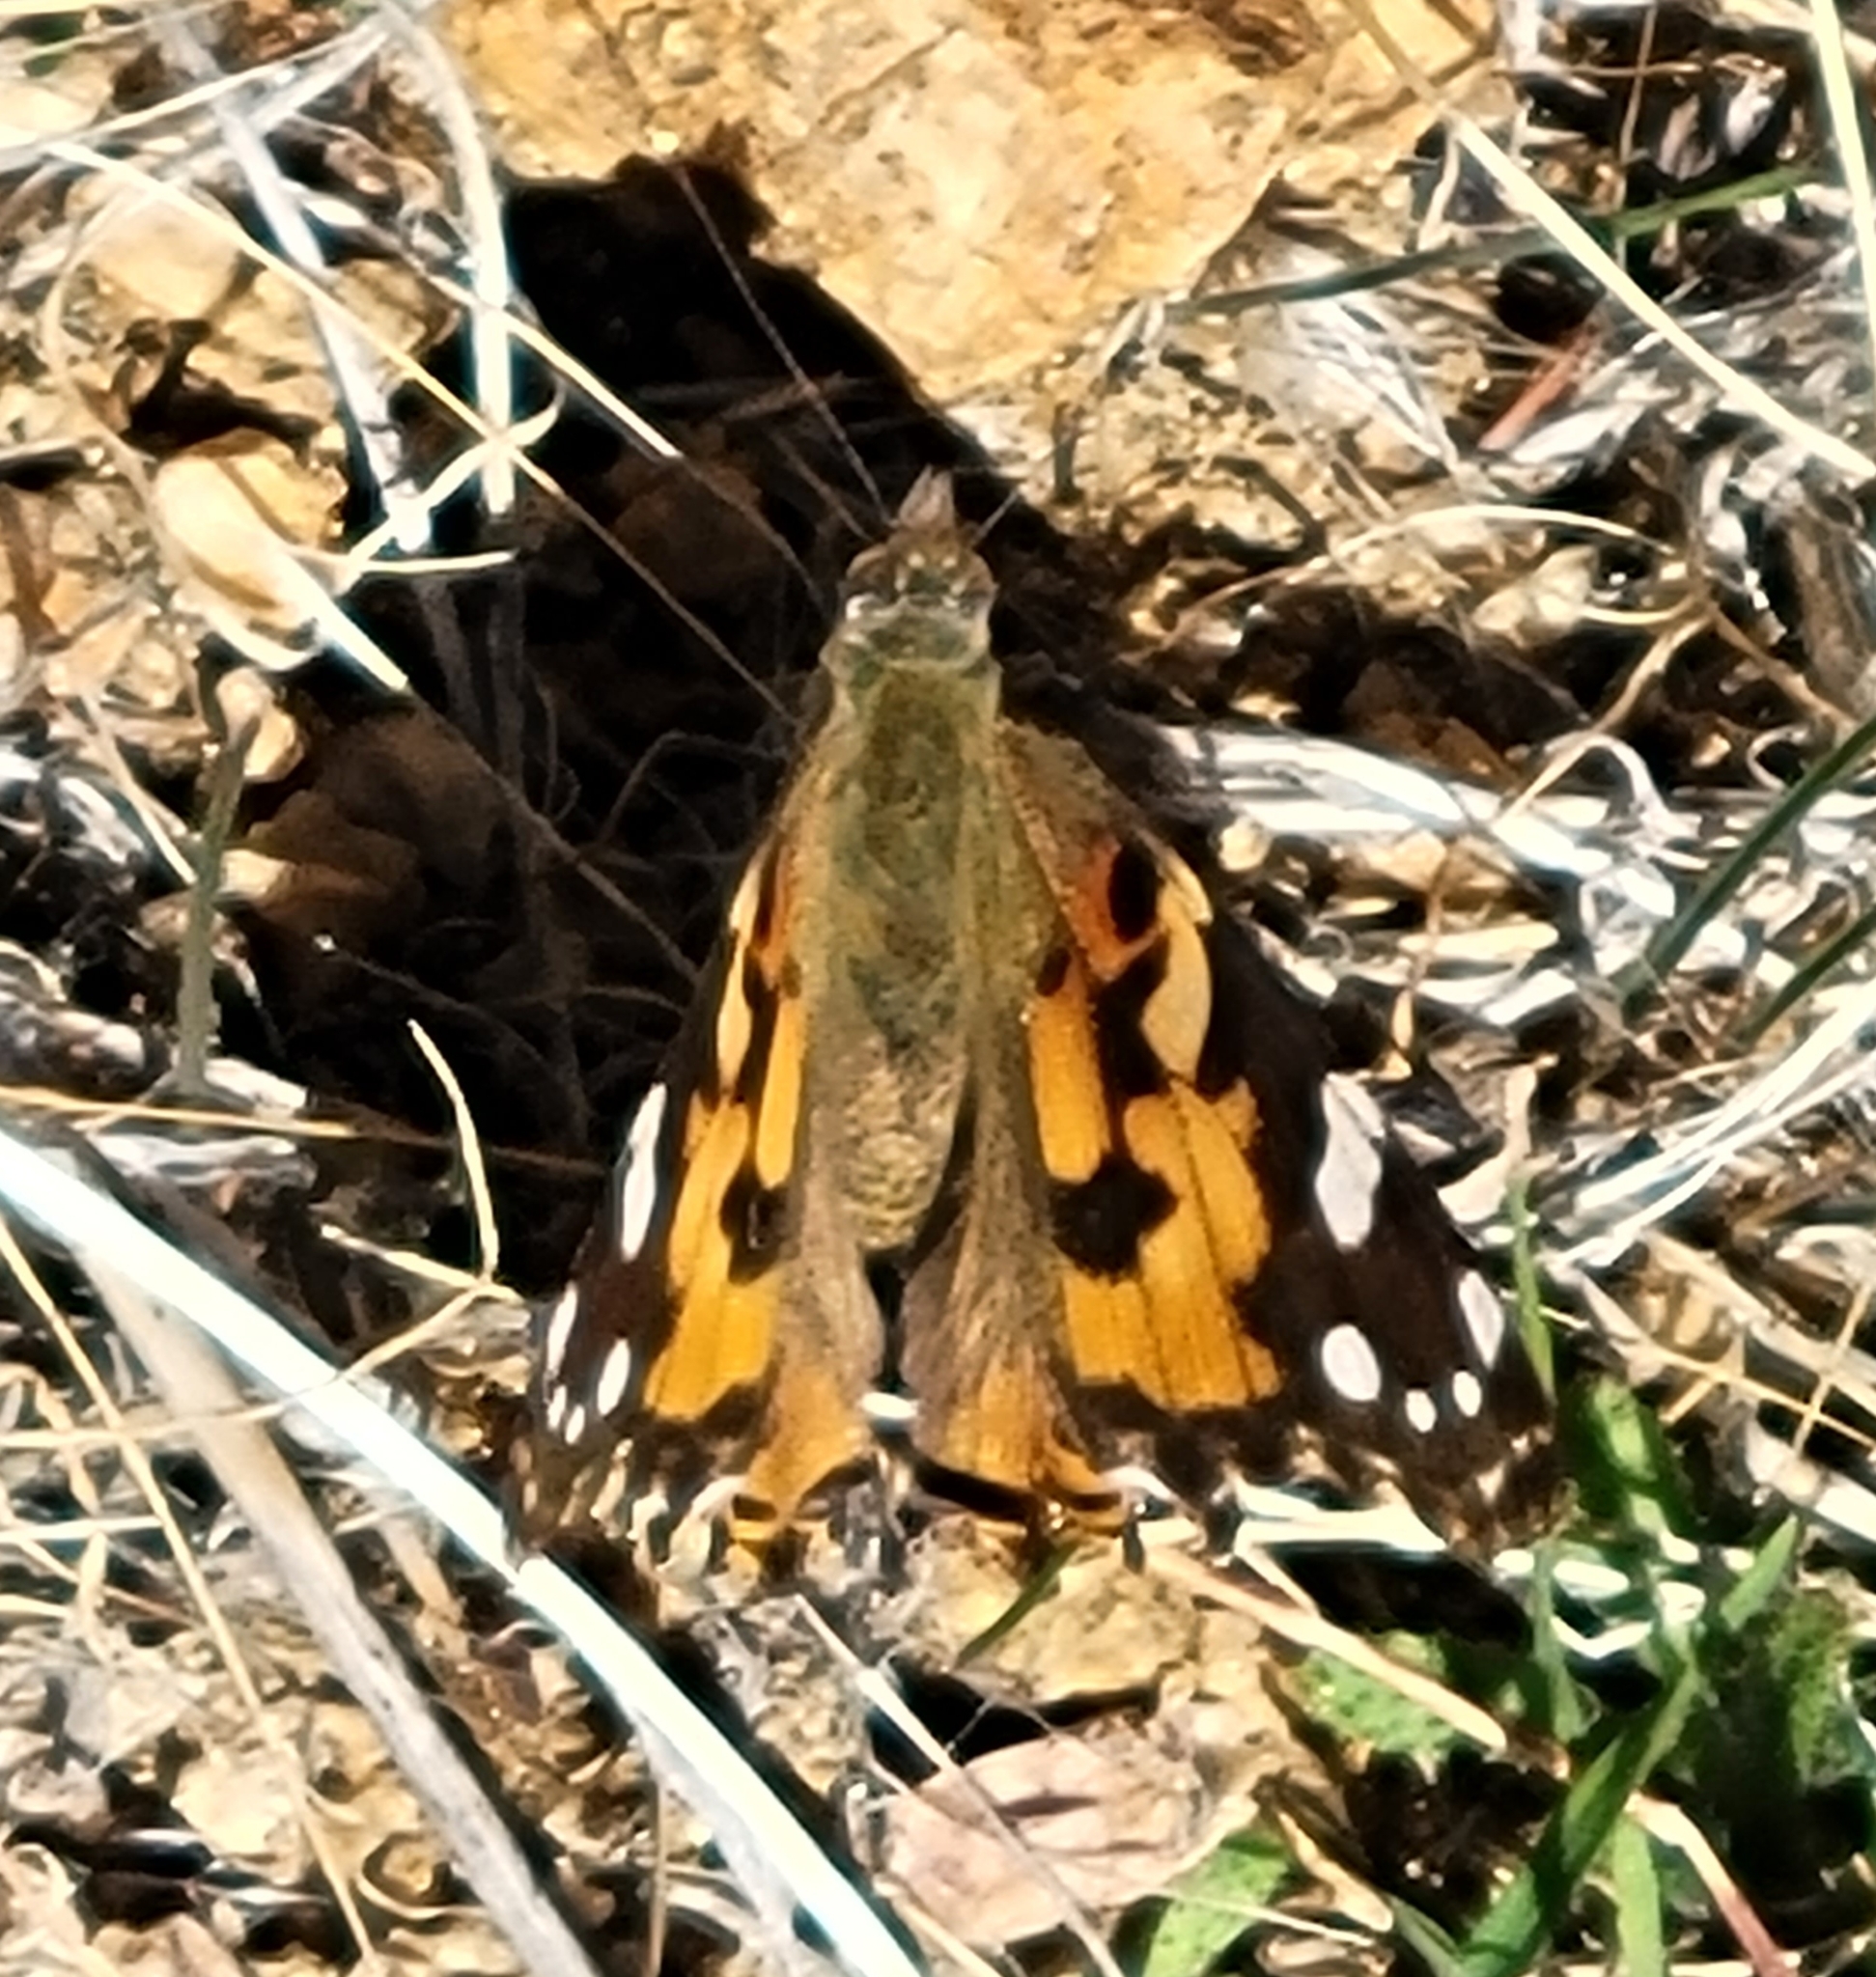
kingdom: Animalia
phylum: Arthropoda
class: Insecta
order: Lepidoptera
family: Nymphalidae
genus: Vanessa
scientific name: Vanessa cardui
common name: Painted lady
